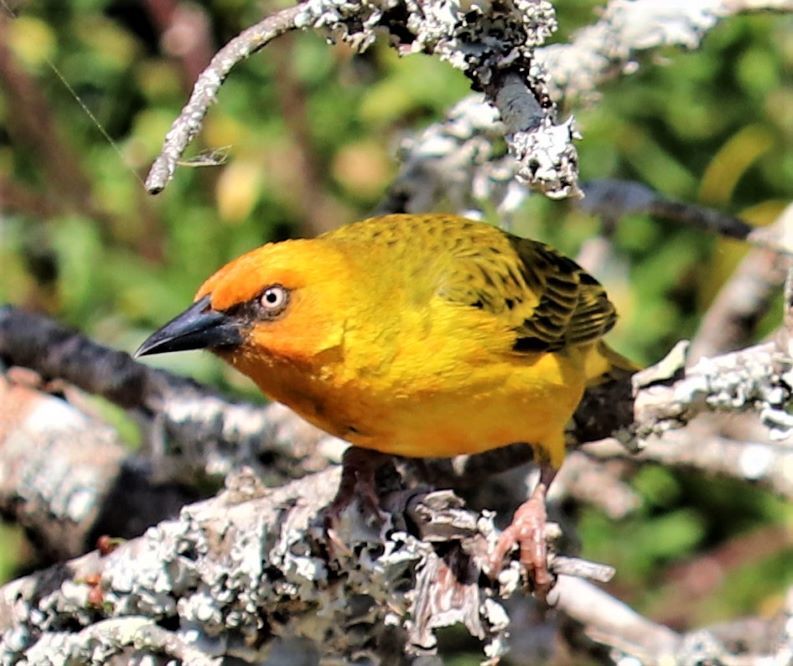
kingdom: Animalia
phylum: Chordata
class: Aves
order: Passeriformes
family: Ploceidae
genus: Ploceus
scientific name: Ploceus capensis
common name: Cape weaver
